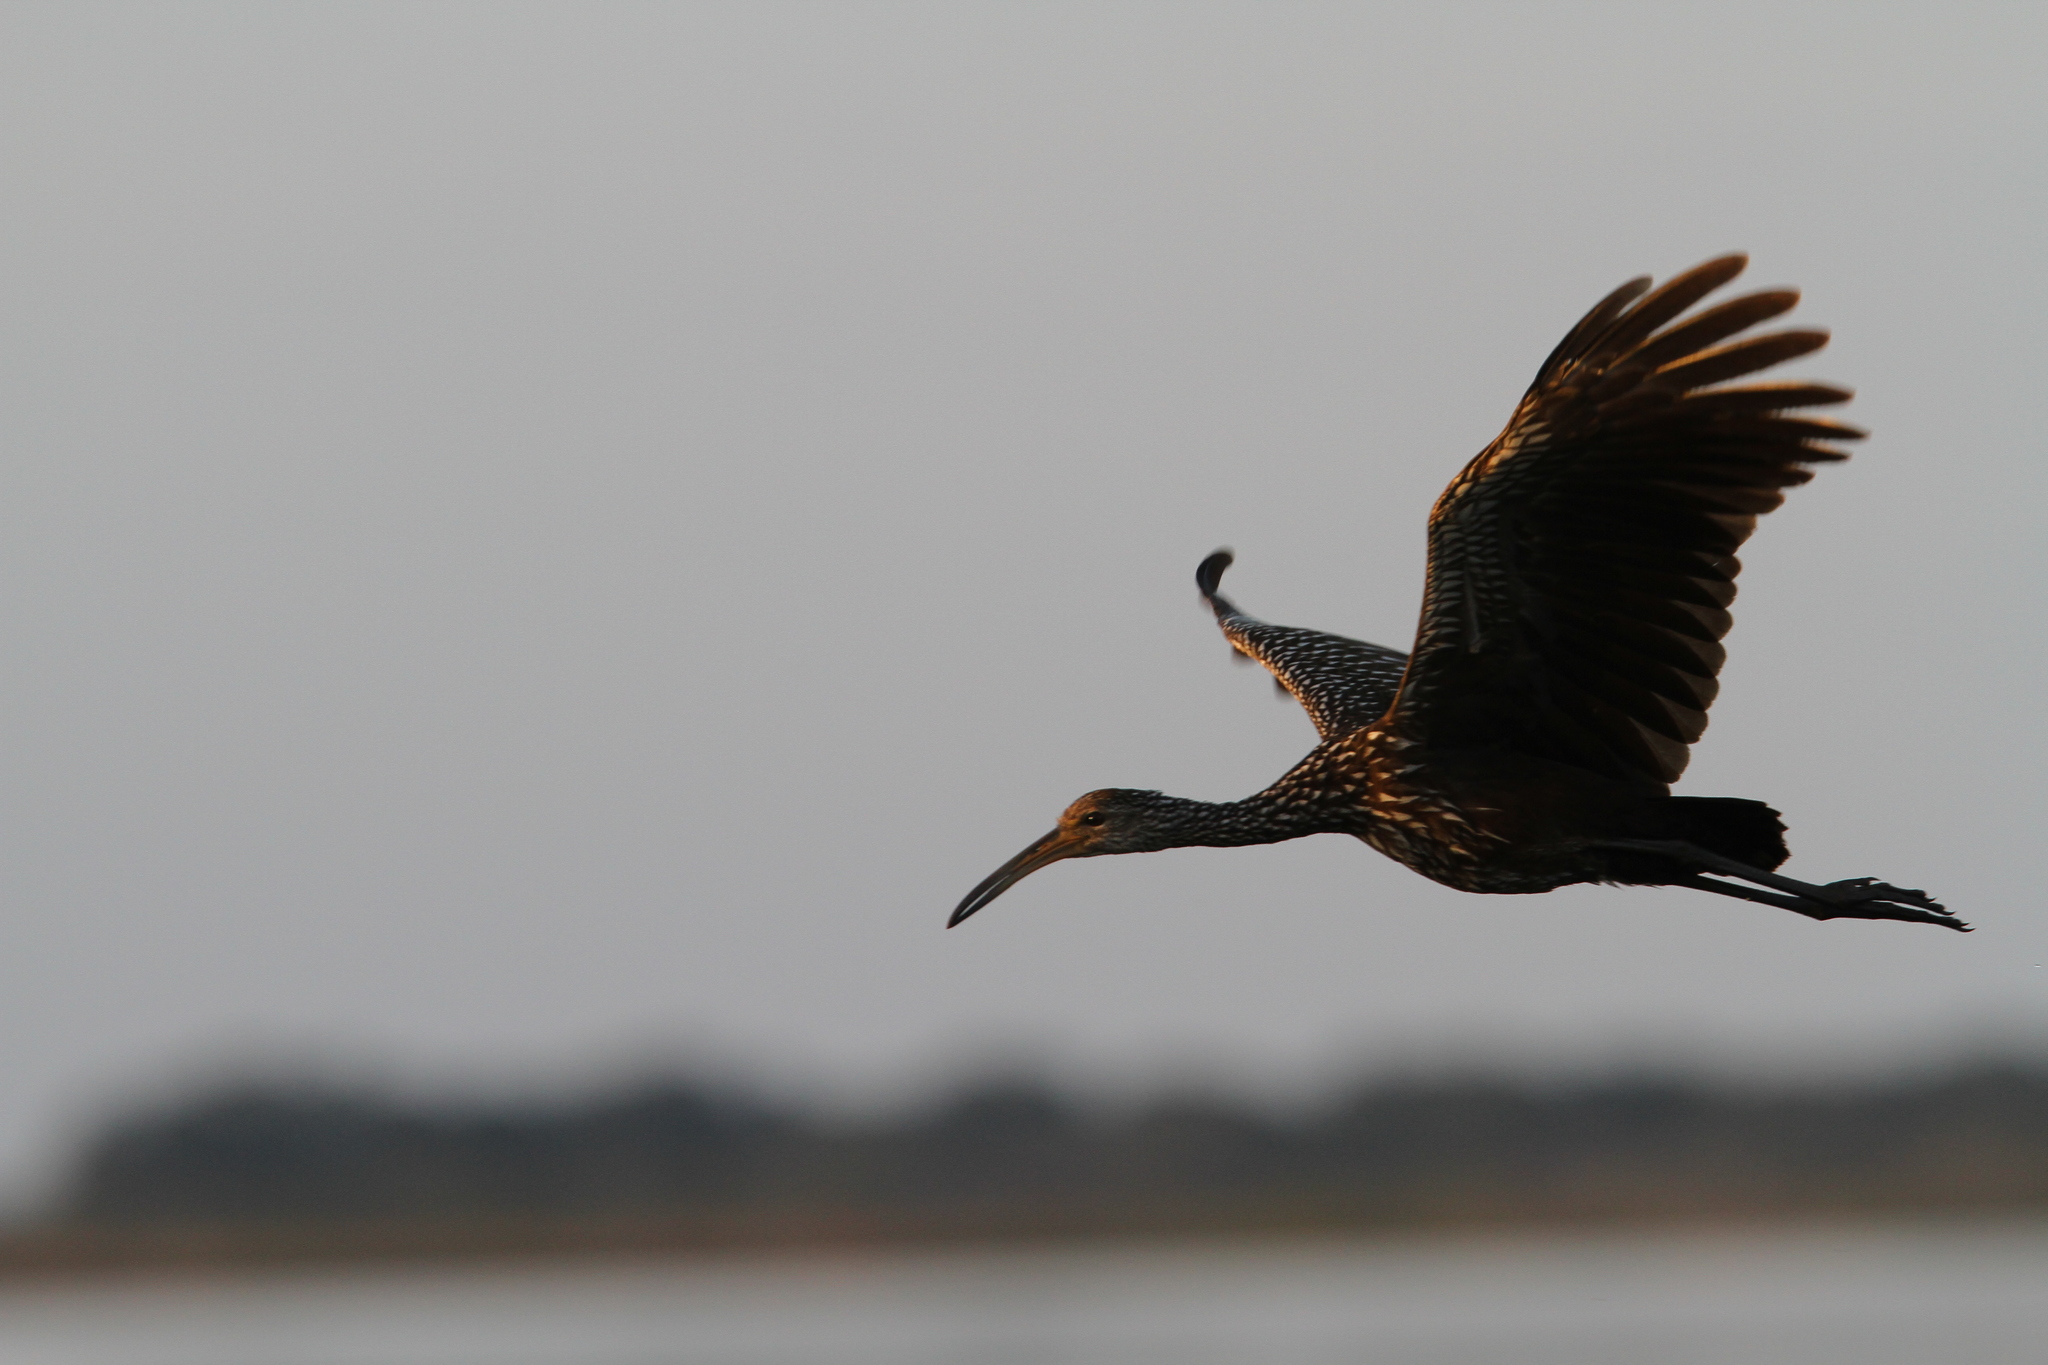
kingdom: Animalia
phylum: Chordata
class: Aves
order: Gruiformes
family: Aramidae
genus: Aramus
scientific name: Aramus guarauna
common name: Limpkin
